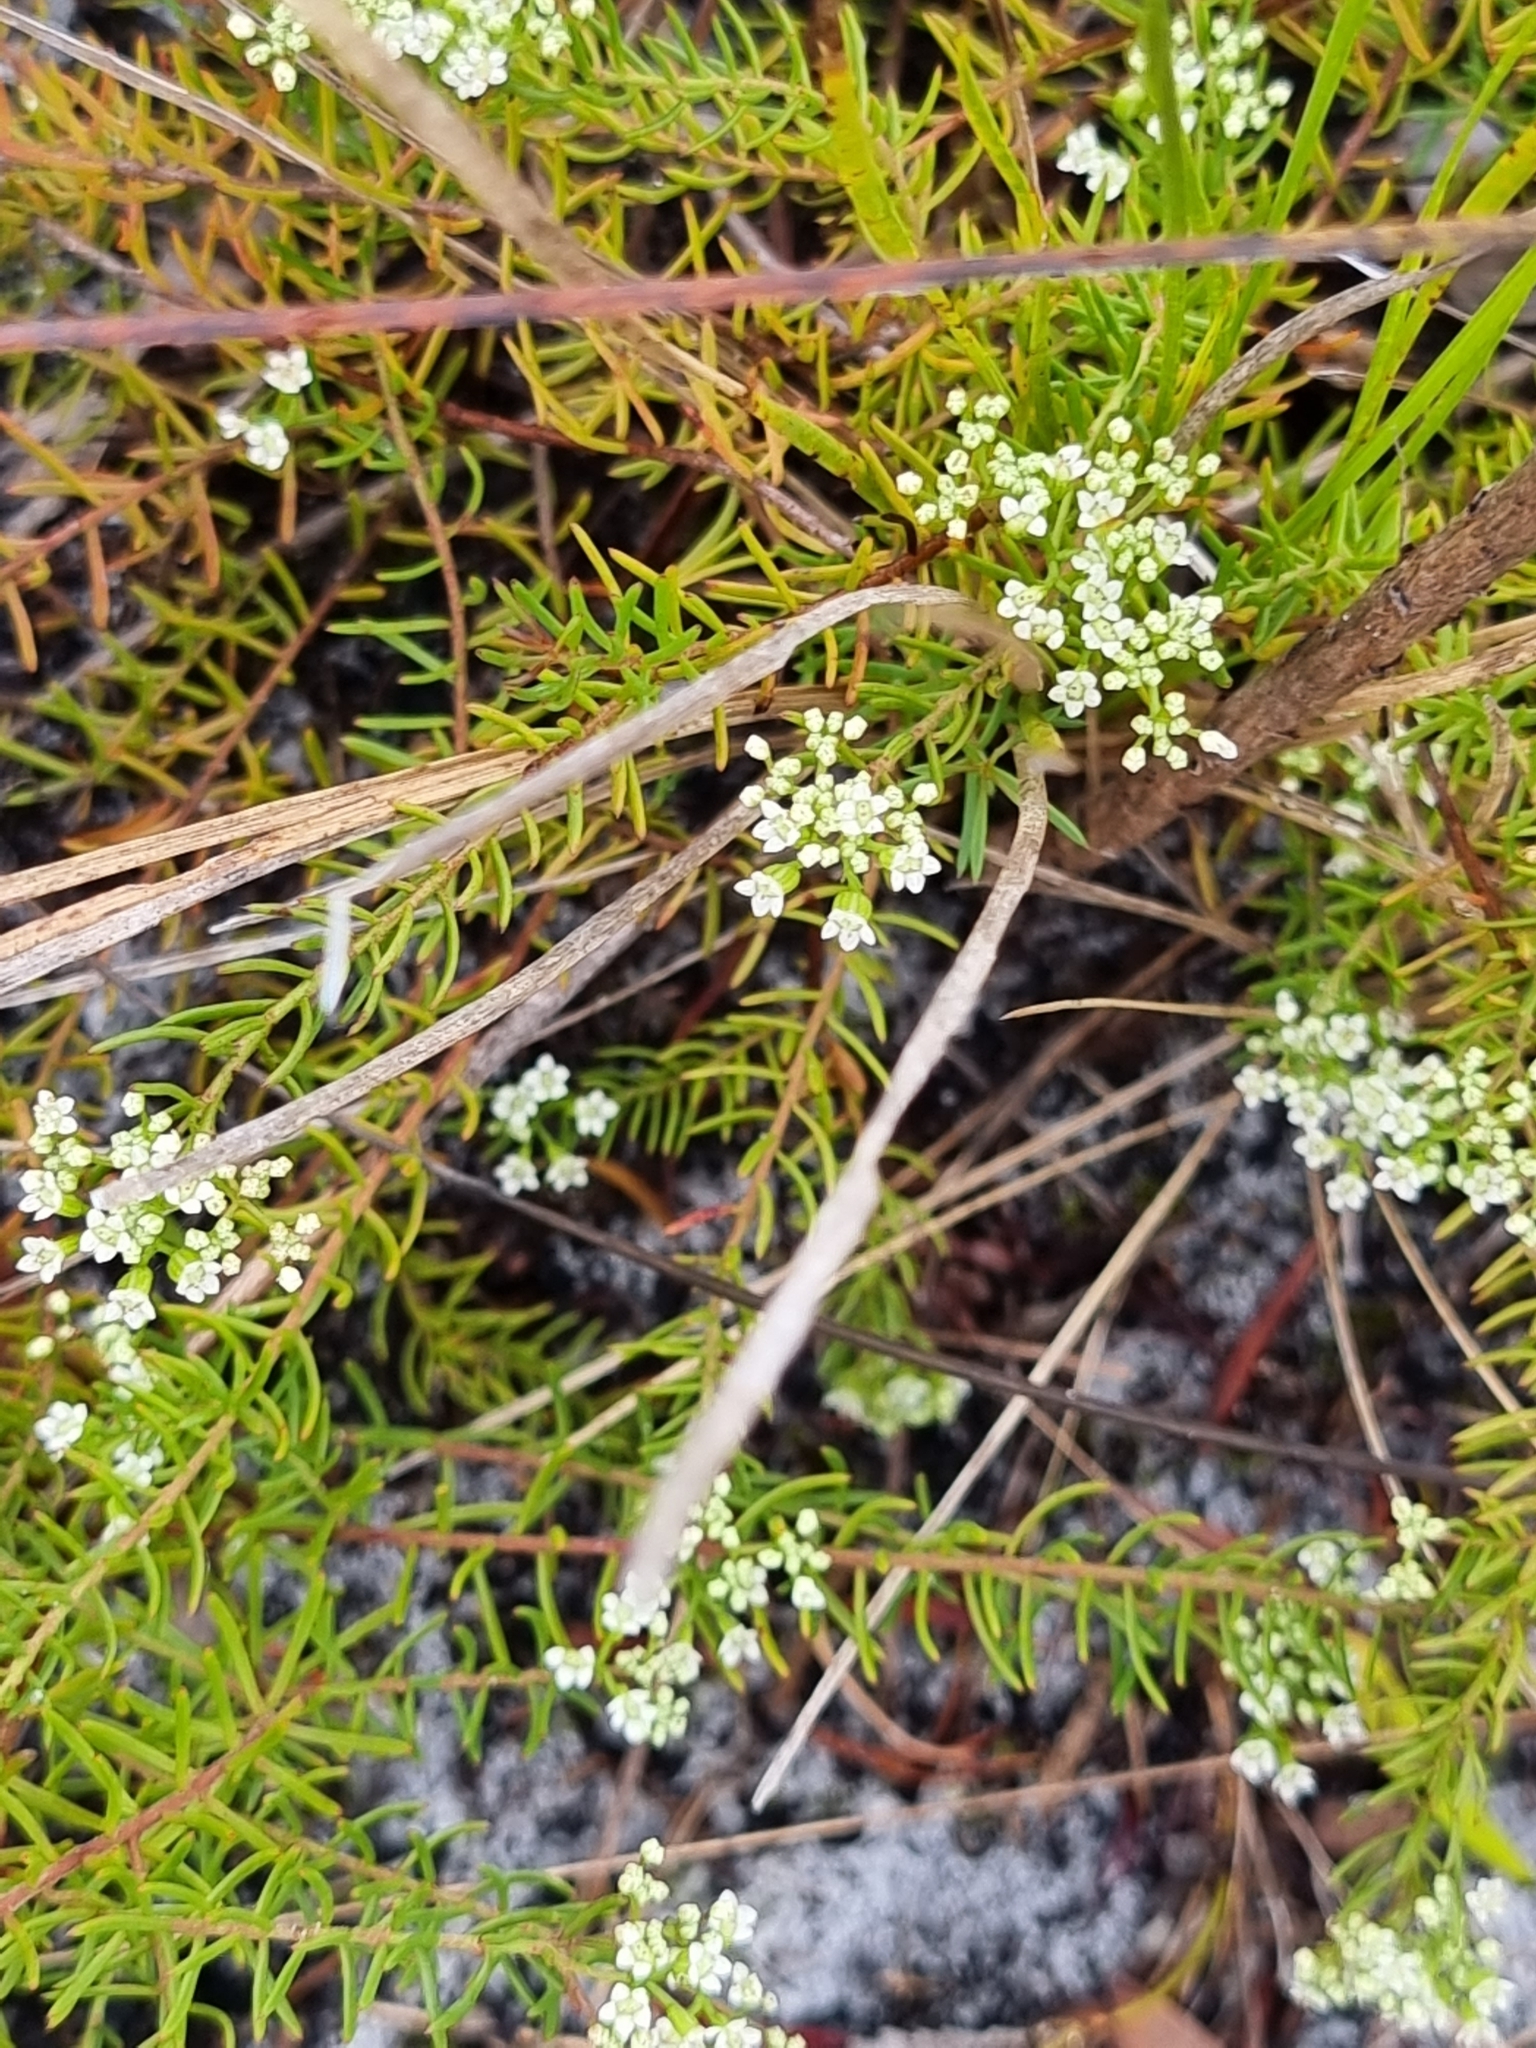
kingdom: Plantae
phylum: Tracheophyta
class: Magnoliopsida
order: Apiales
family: Apiaceae
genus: Platysace
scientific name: Platysace ericoides
